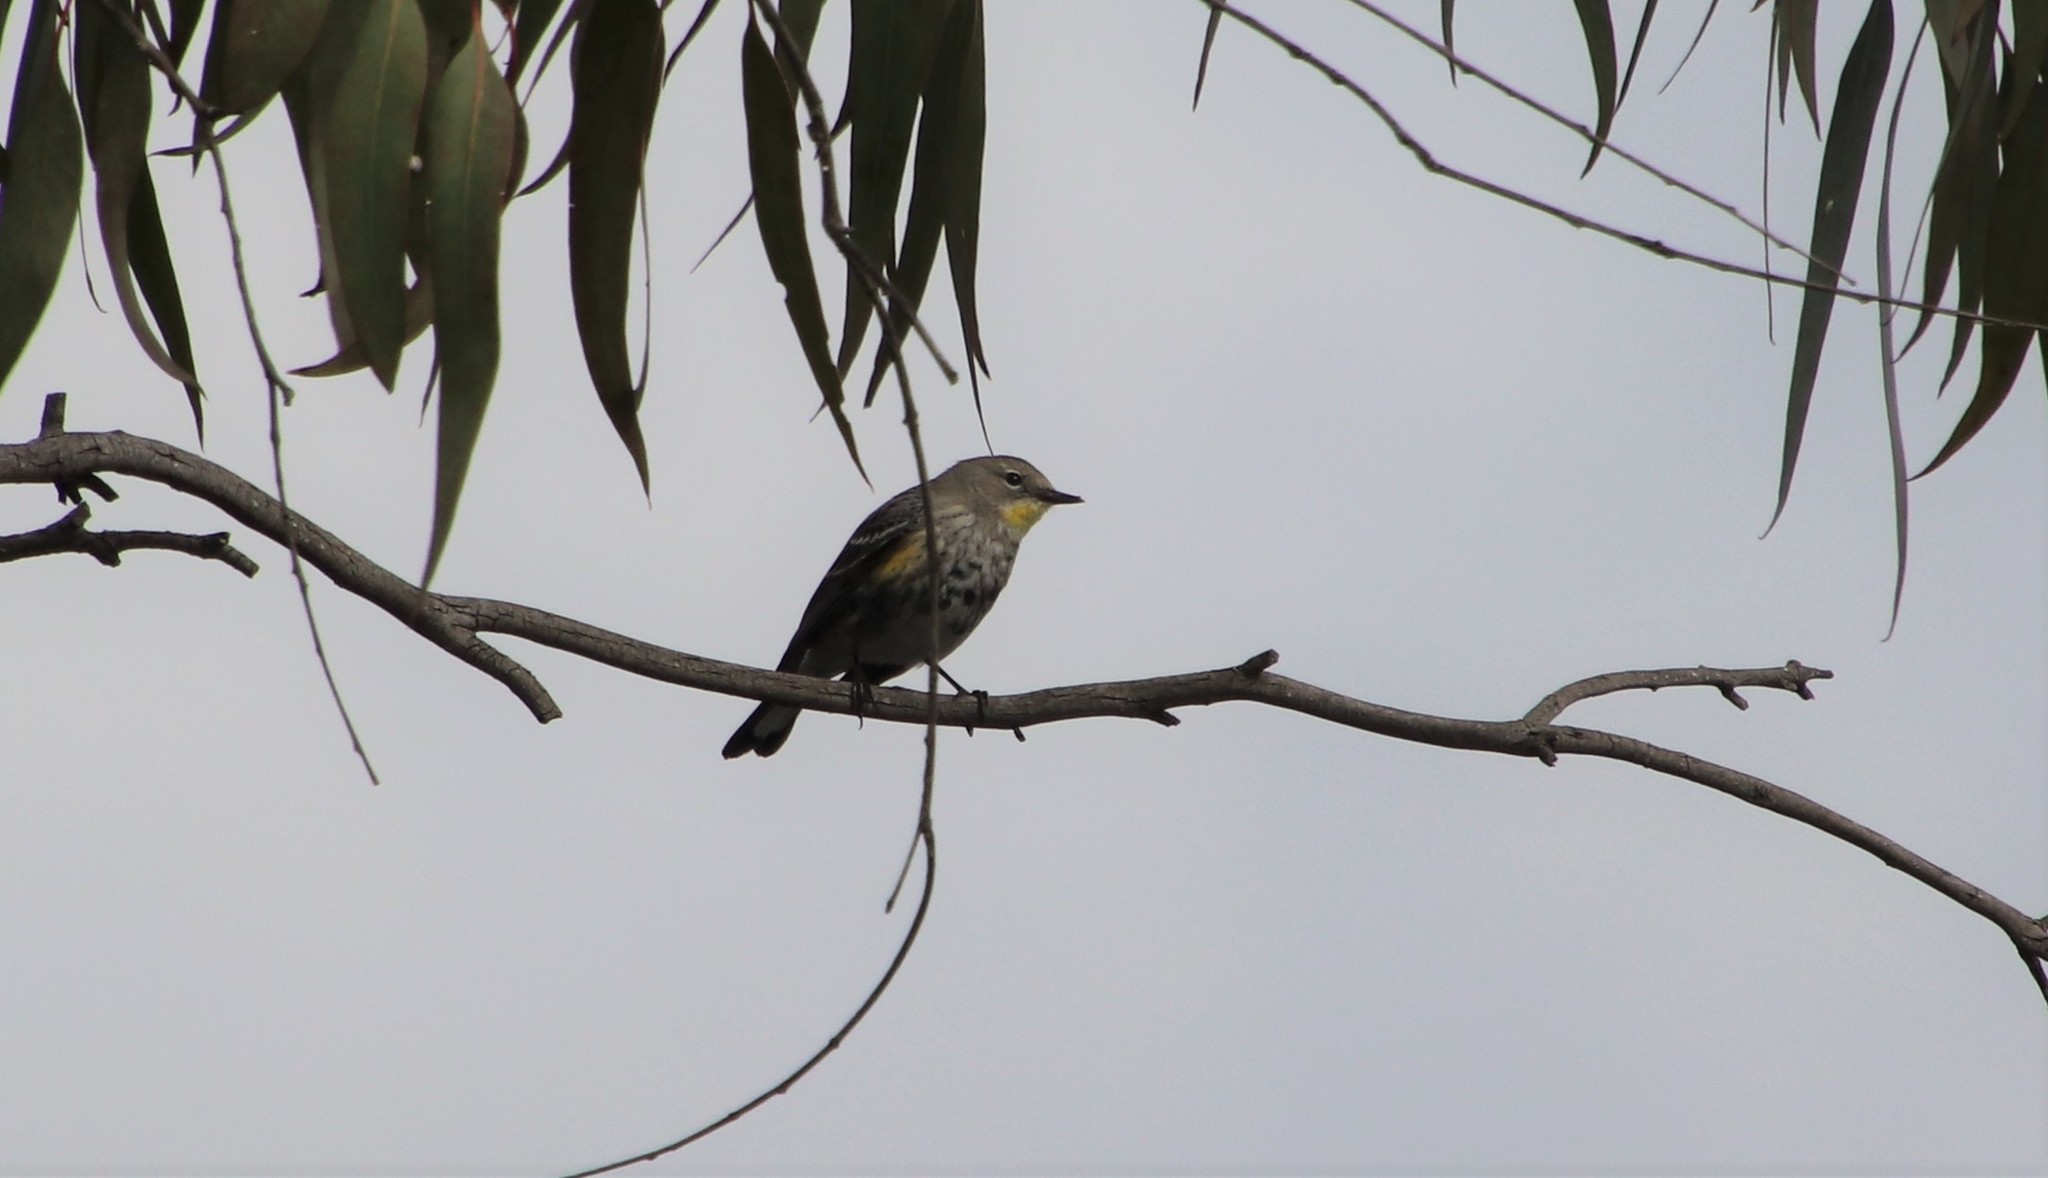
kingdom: Animalia
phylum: Chordata
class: Aves
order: Passeriformes
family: Parulidae
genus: Setophaga
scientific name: Setophaga auduboni
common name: Audubon's warbler
